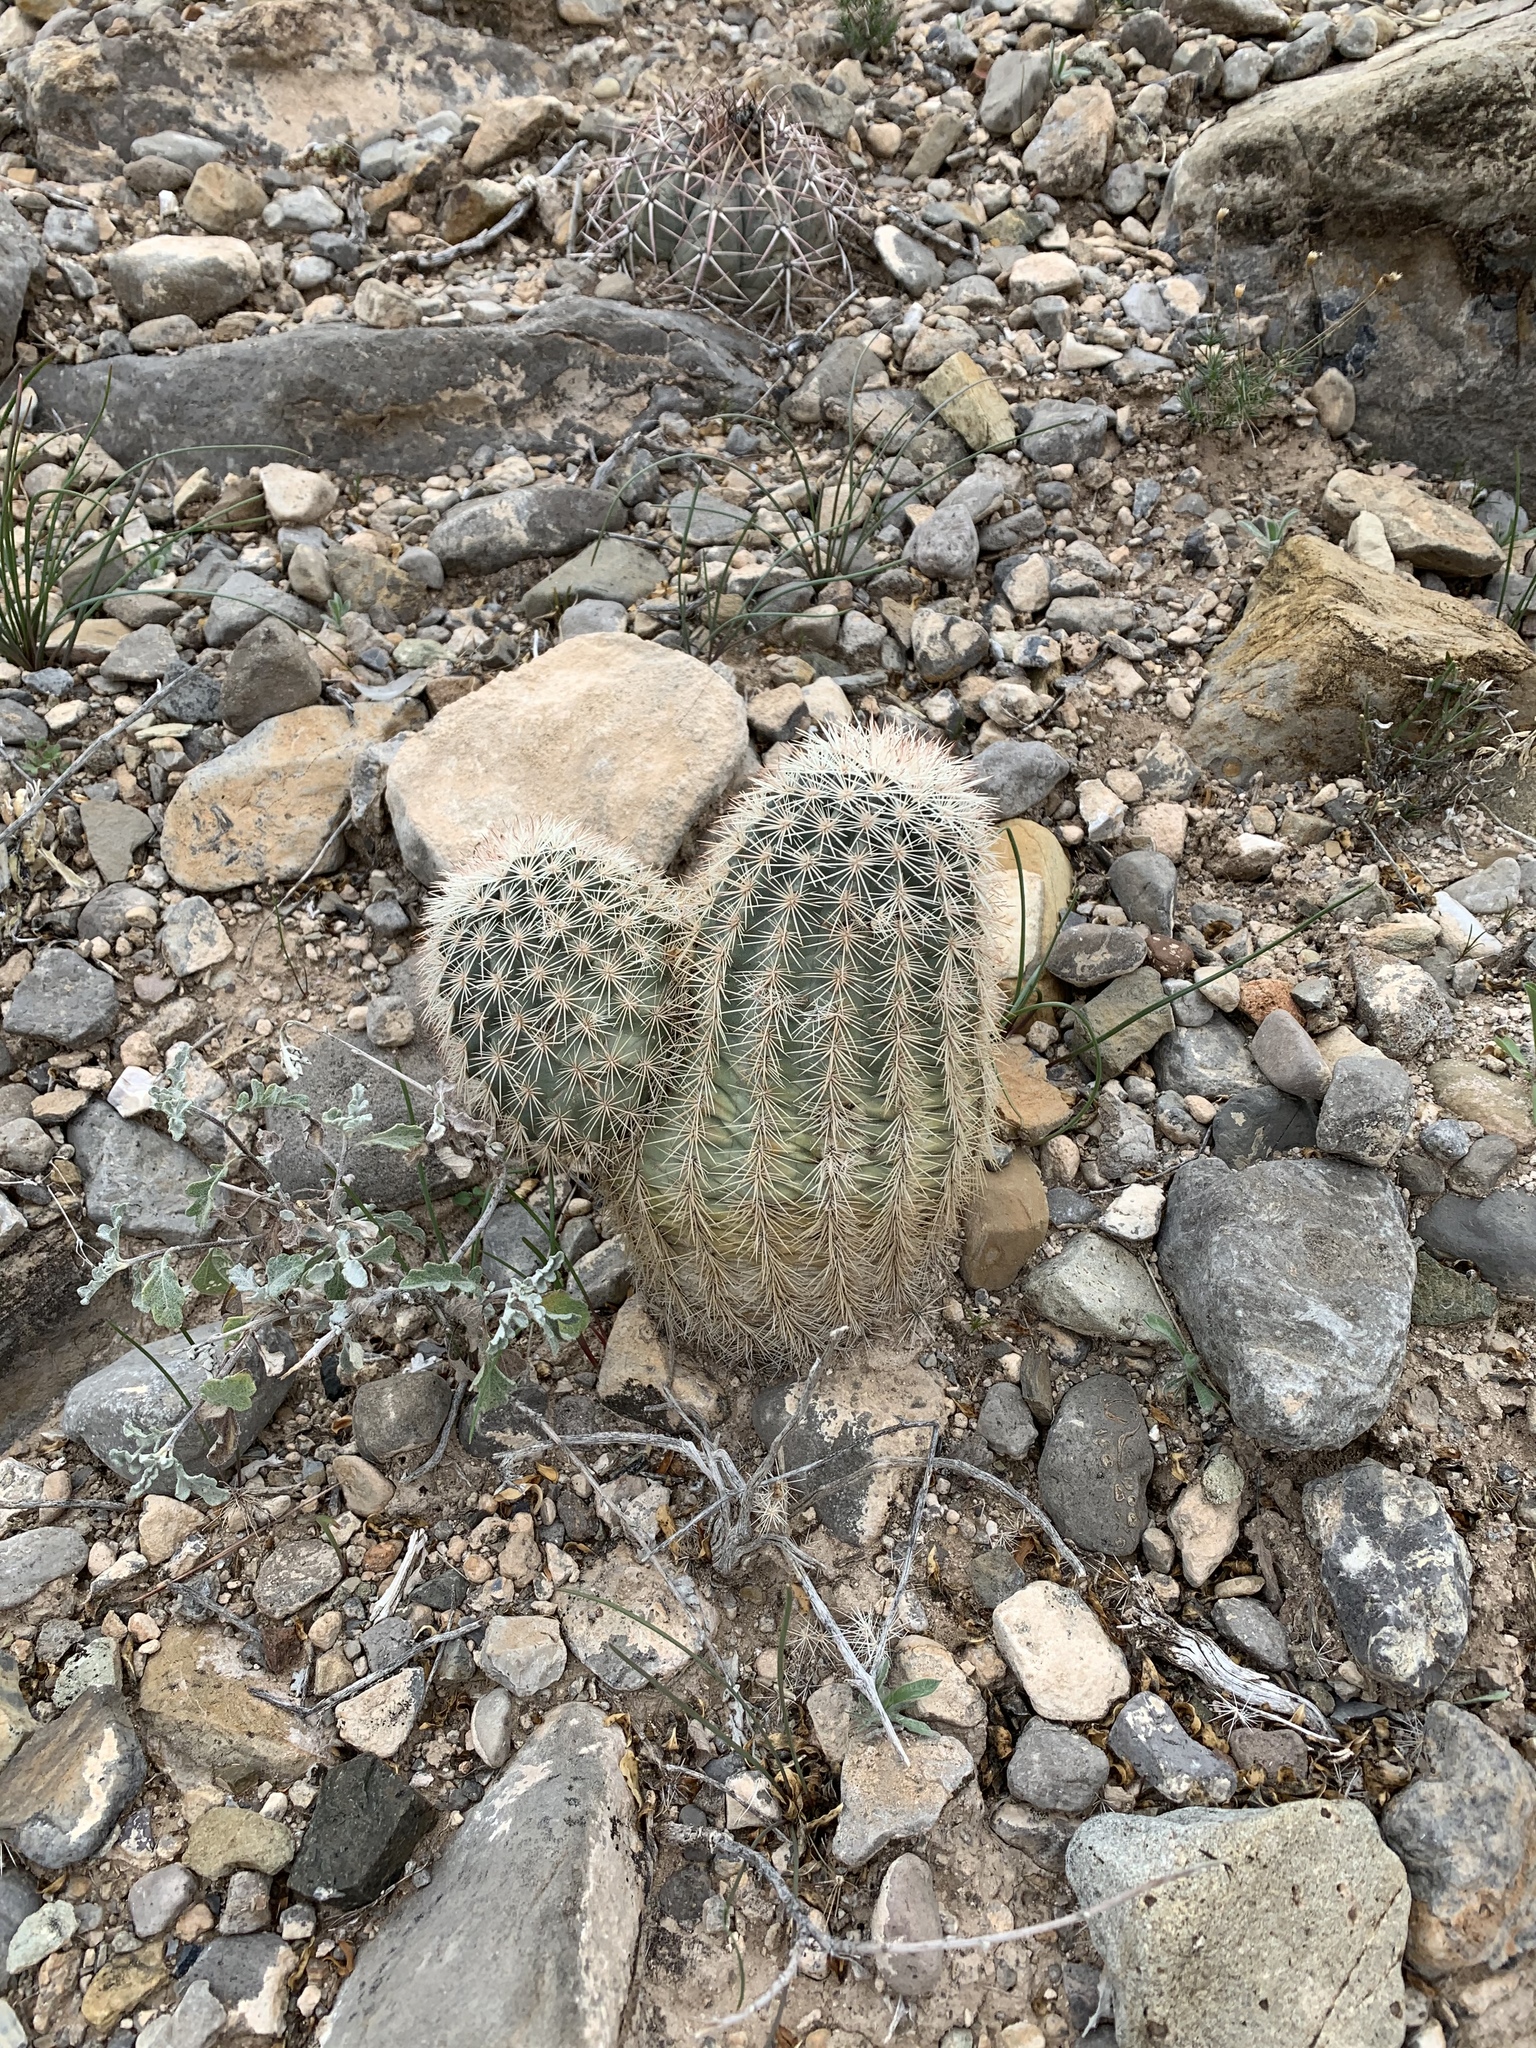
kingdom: Plantae
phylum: Tracheophyta
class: Magnoliopsida
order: Caryophyllales
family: Cactaceae
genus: Echinocereus
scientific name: Echinocereus dasyacanthus
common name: Spiny hedgehog cactus
